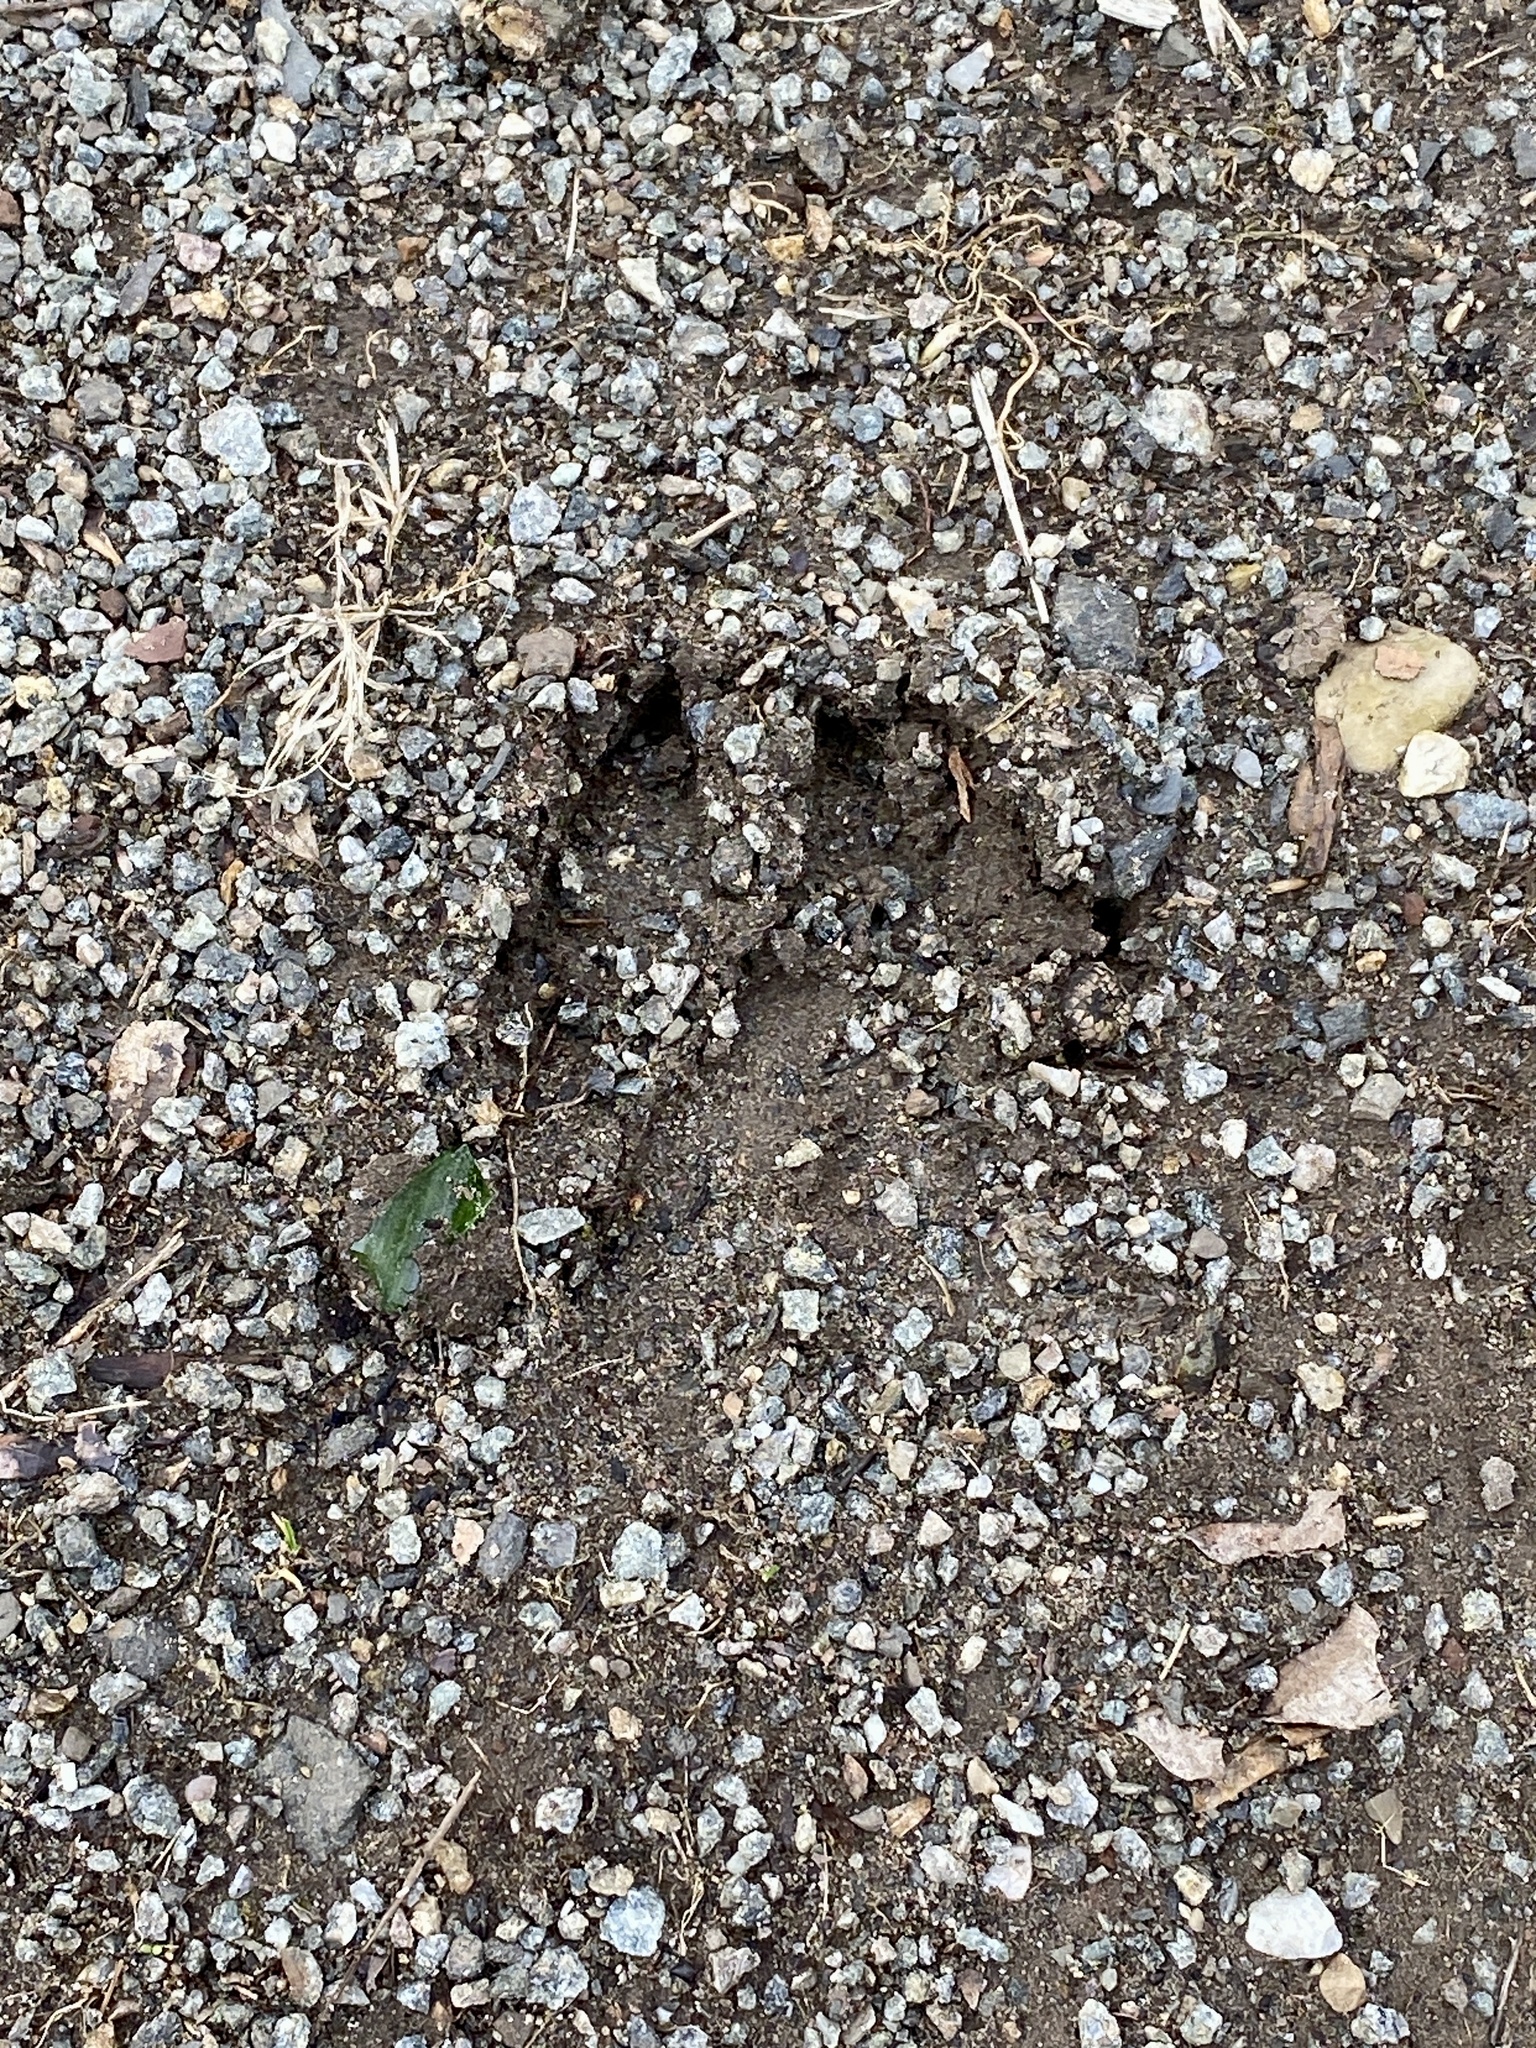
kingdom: Animalia
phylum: Chordata
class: Mammalia
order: Artiodactyla
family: Cervidae
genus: Odocoileus
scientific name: Odocoileus virginianus
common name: White-tailed deer
